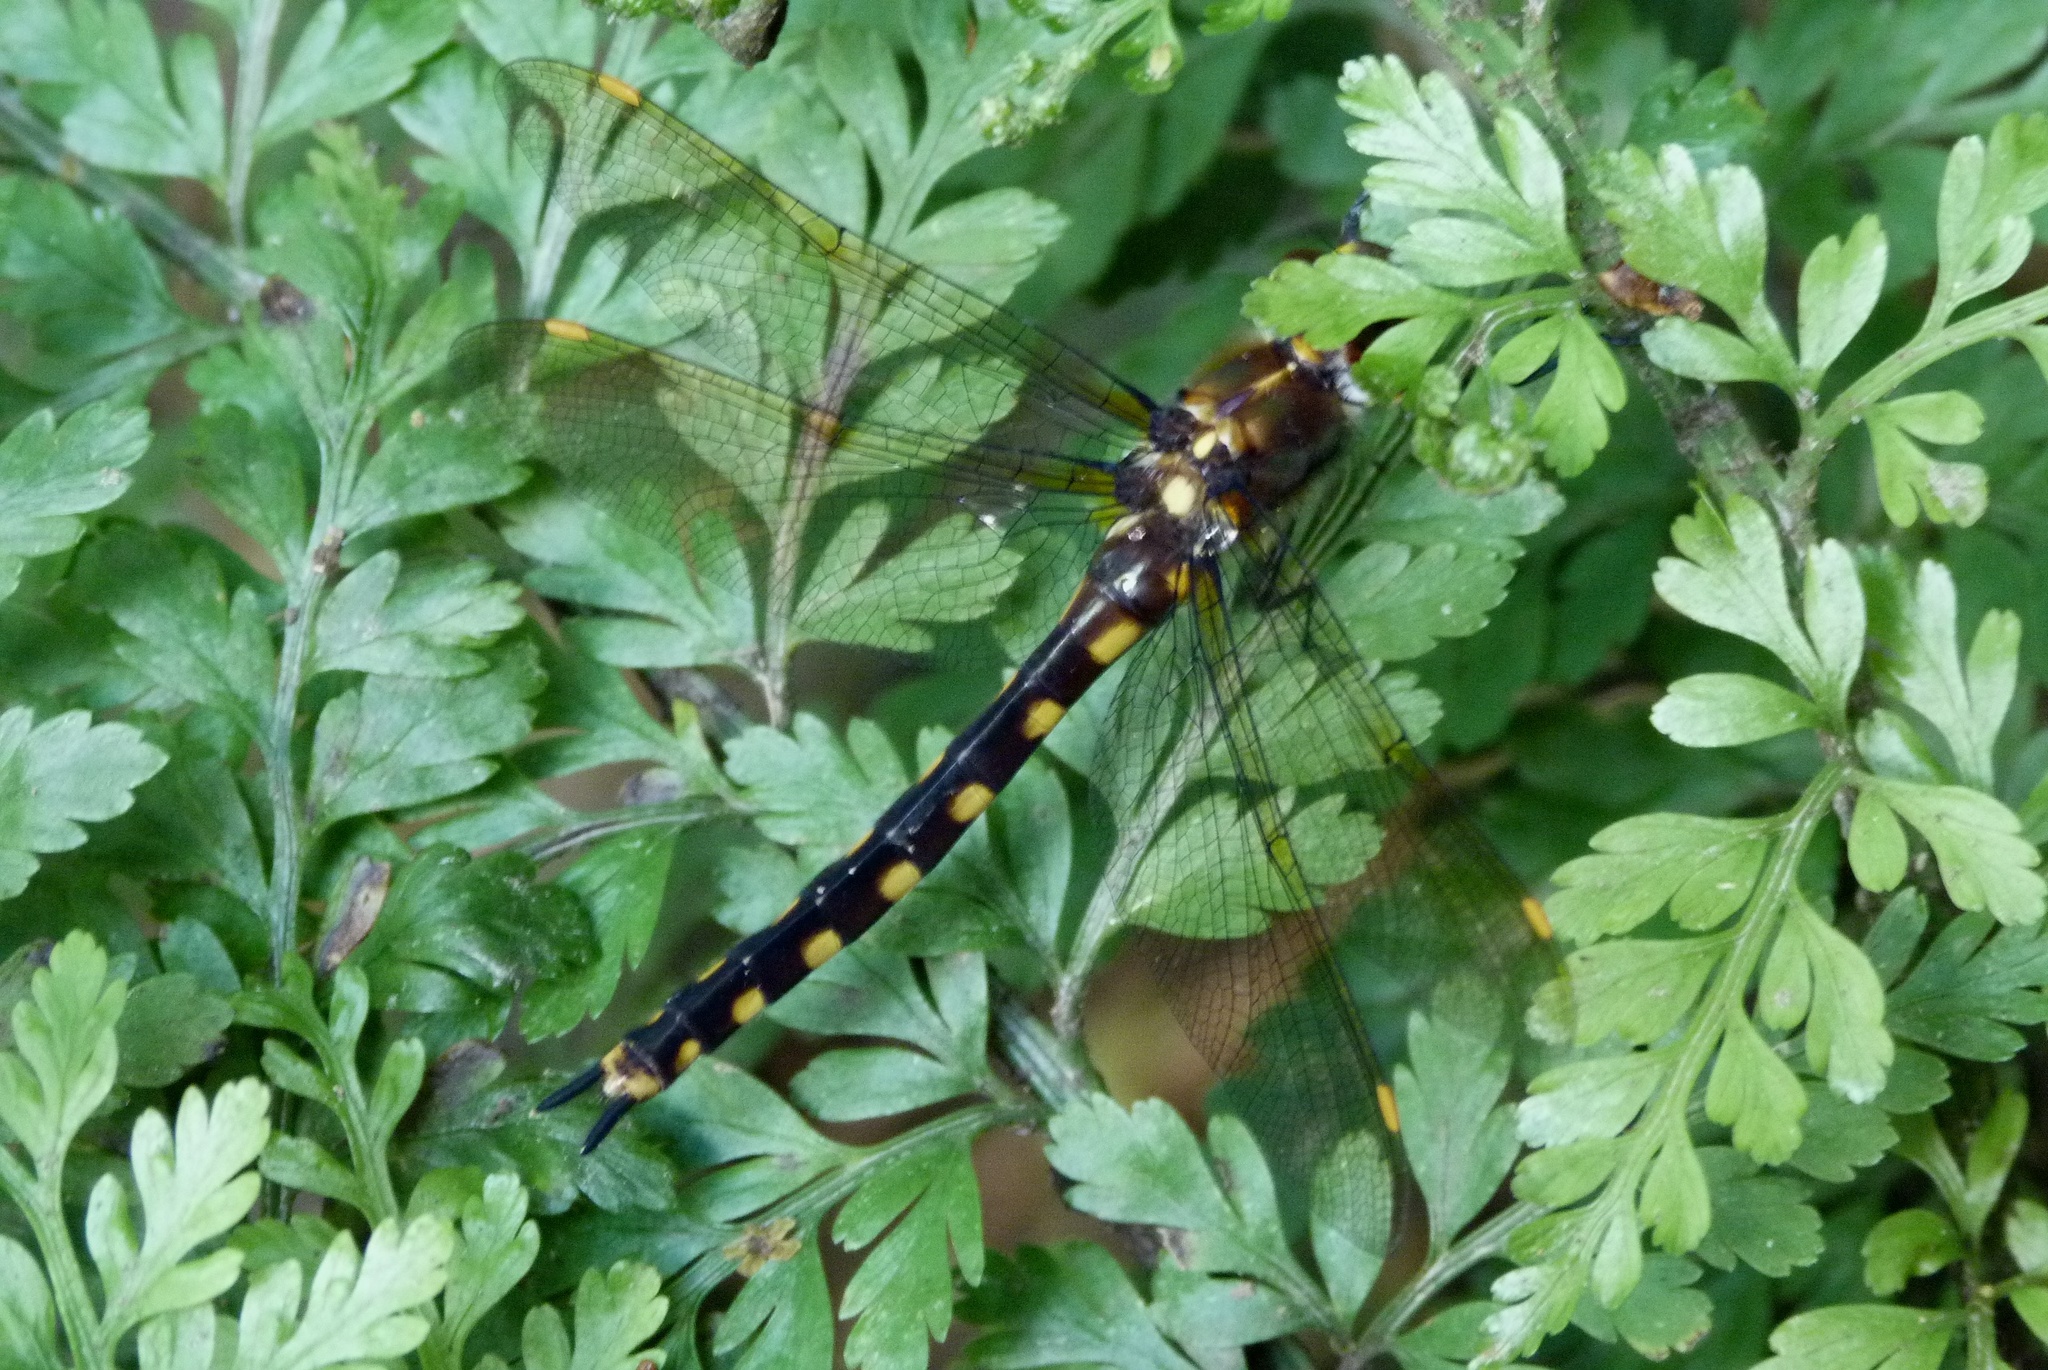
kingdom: Animalia
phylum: Arthropoda
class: Insecta
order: Odonata
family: Corduliidae
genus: Procordulia
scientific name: Procordulia grayi
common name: Yellow spotted dragonfly
